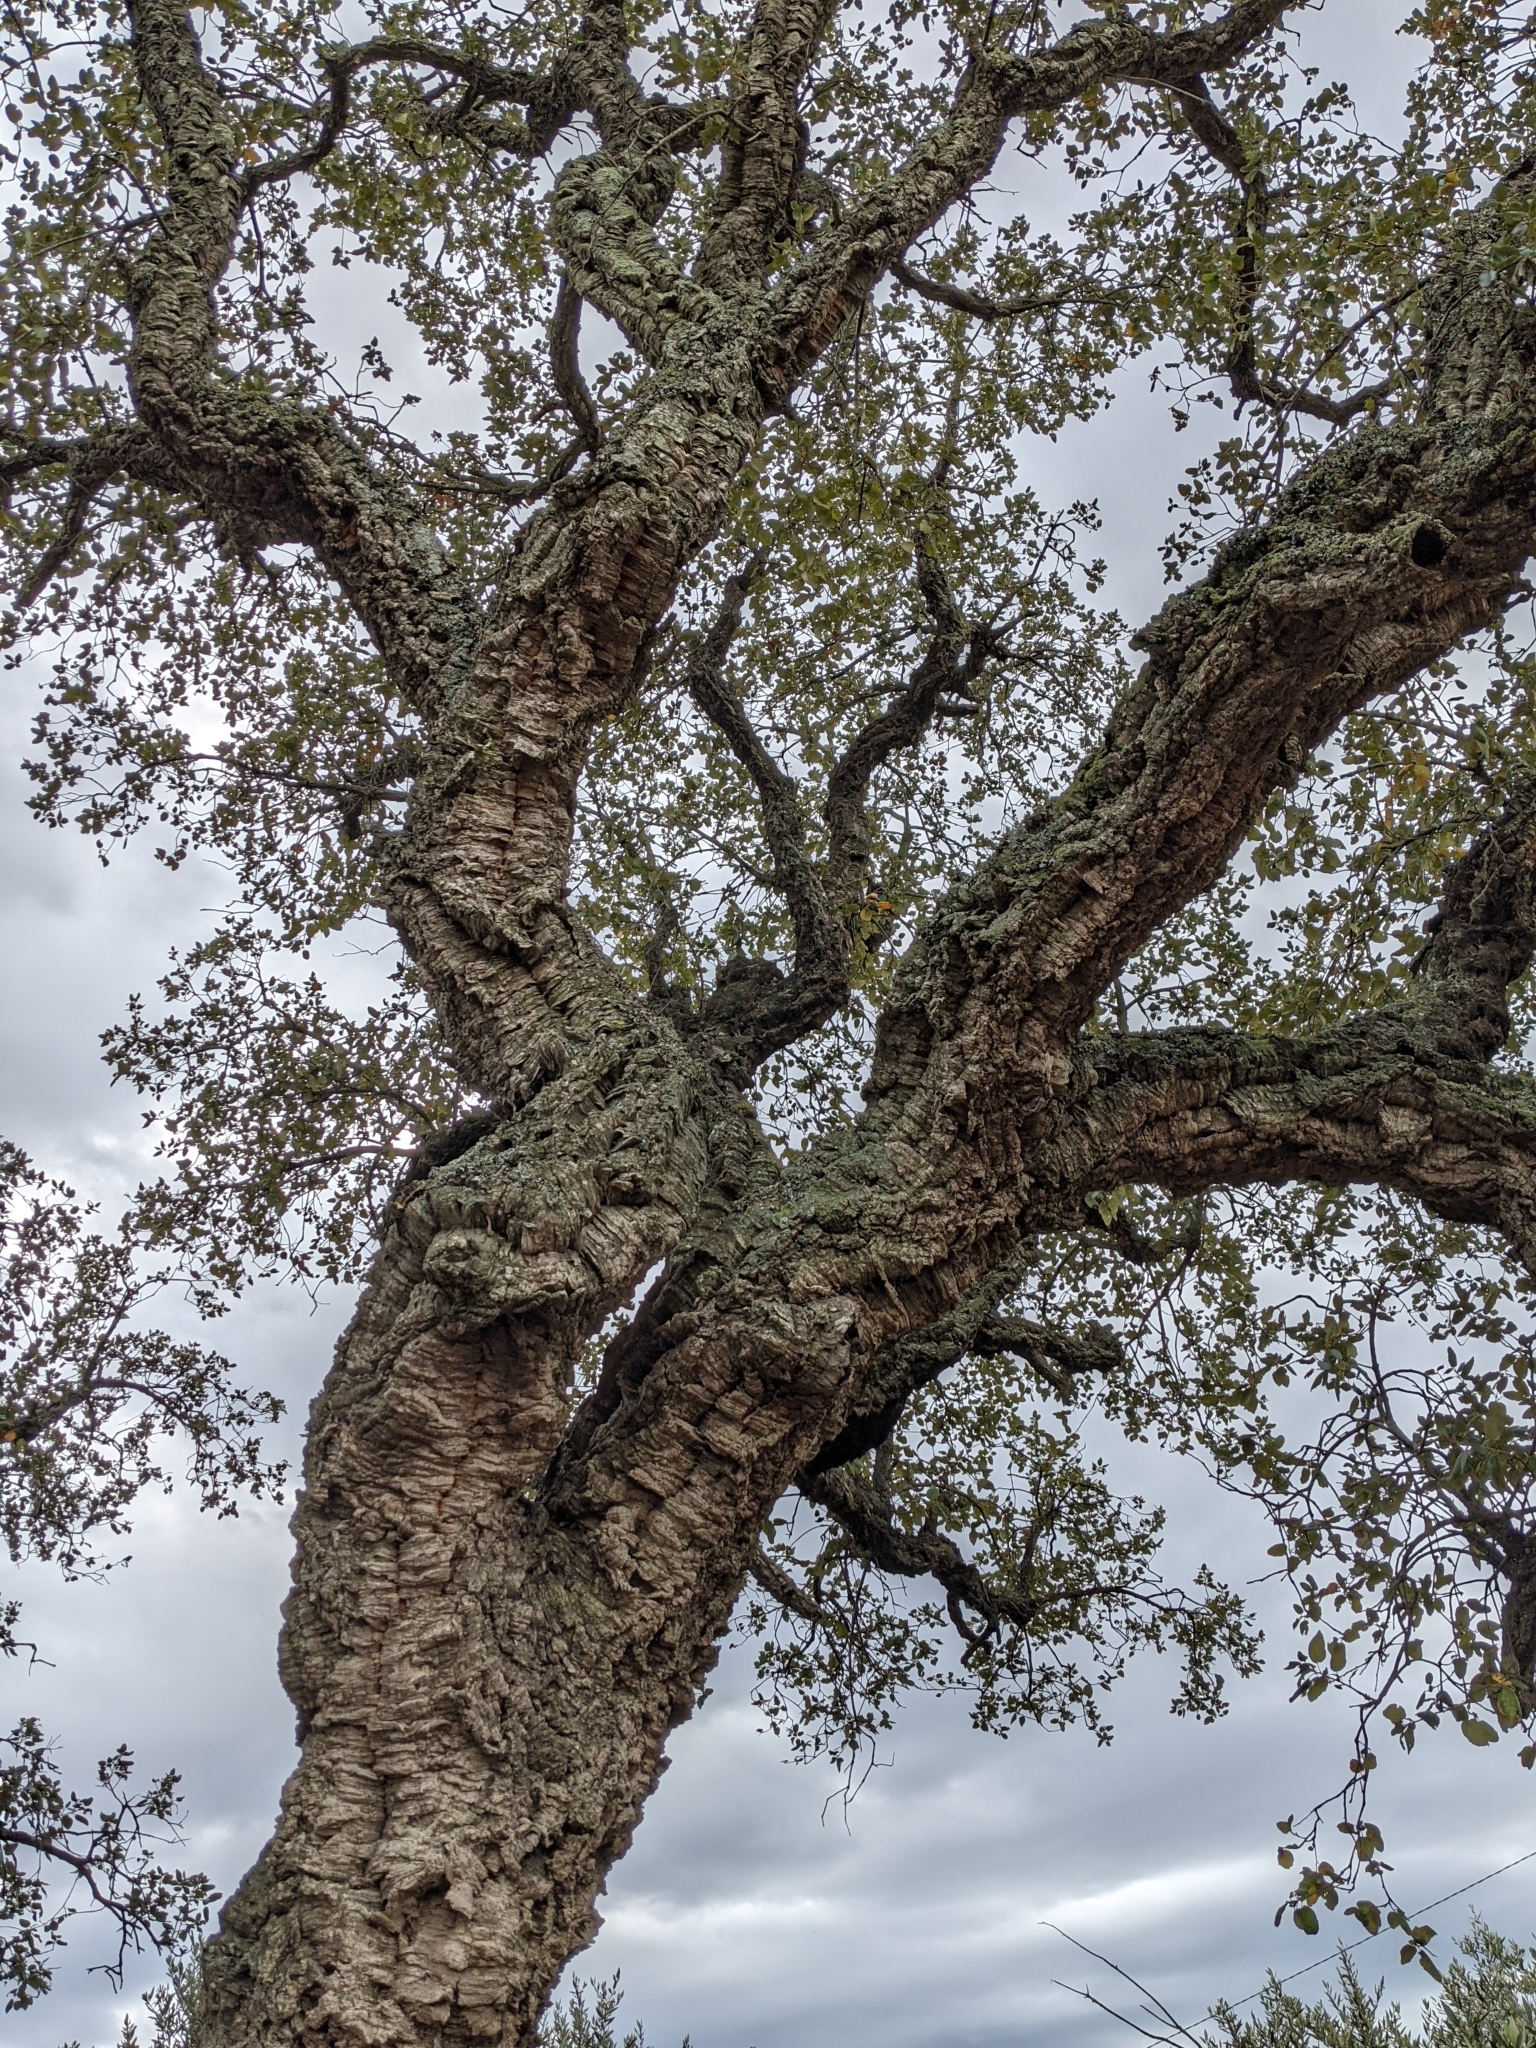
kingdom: Plantae
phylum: Tracheophyta
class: Magnoliopsida
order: Fagales
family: Fagaceae
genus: Quercus
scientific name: Quercus suber
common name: Cork oak
